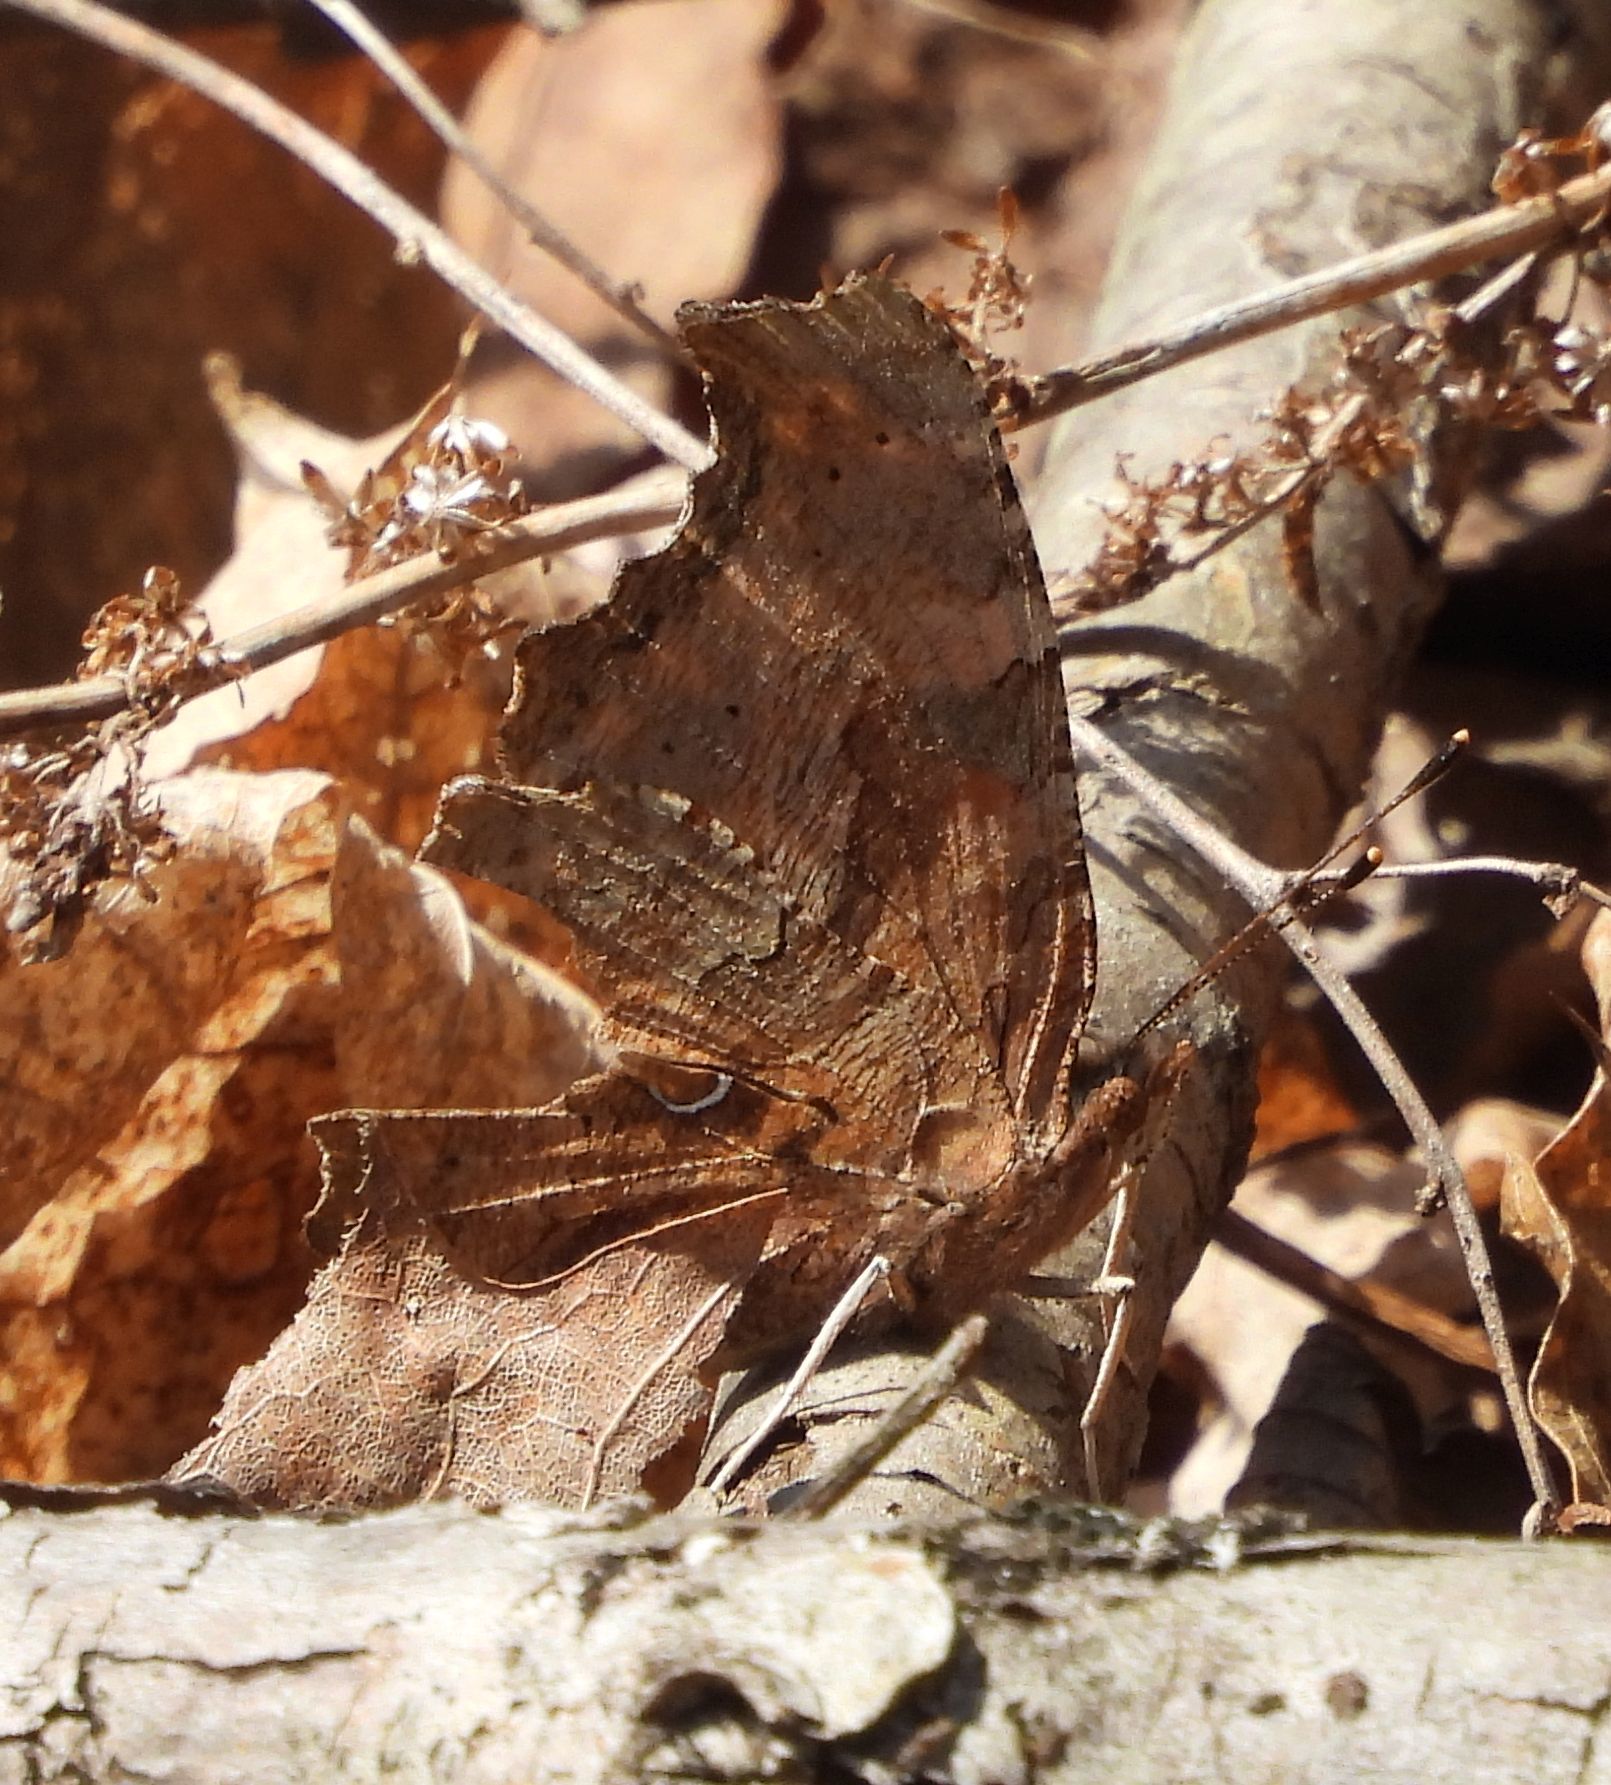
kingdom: Animalia
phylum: Arthropoda
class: Insecta
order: Lepidoptera
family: Nymphalidae
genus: Polygonia
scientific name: Polygonia comma
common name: Eastern comma
